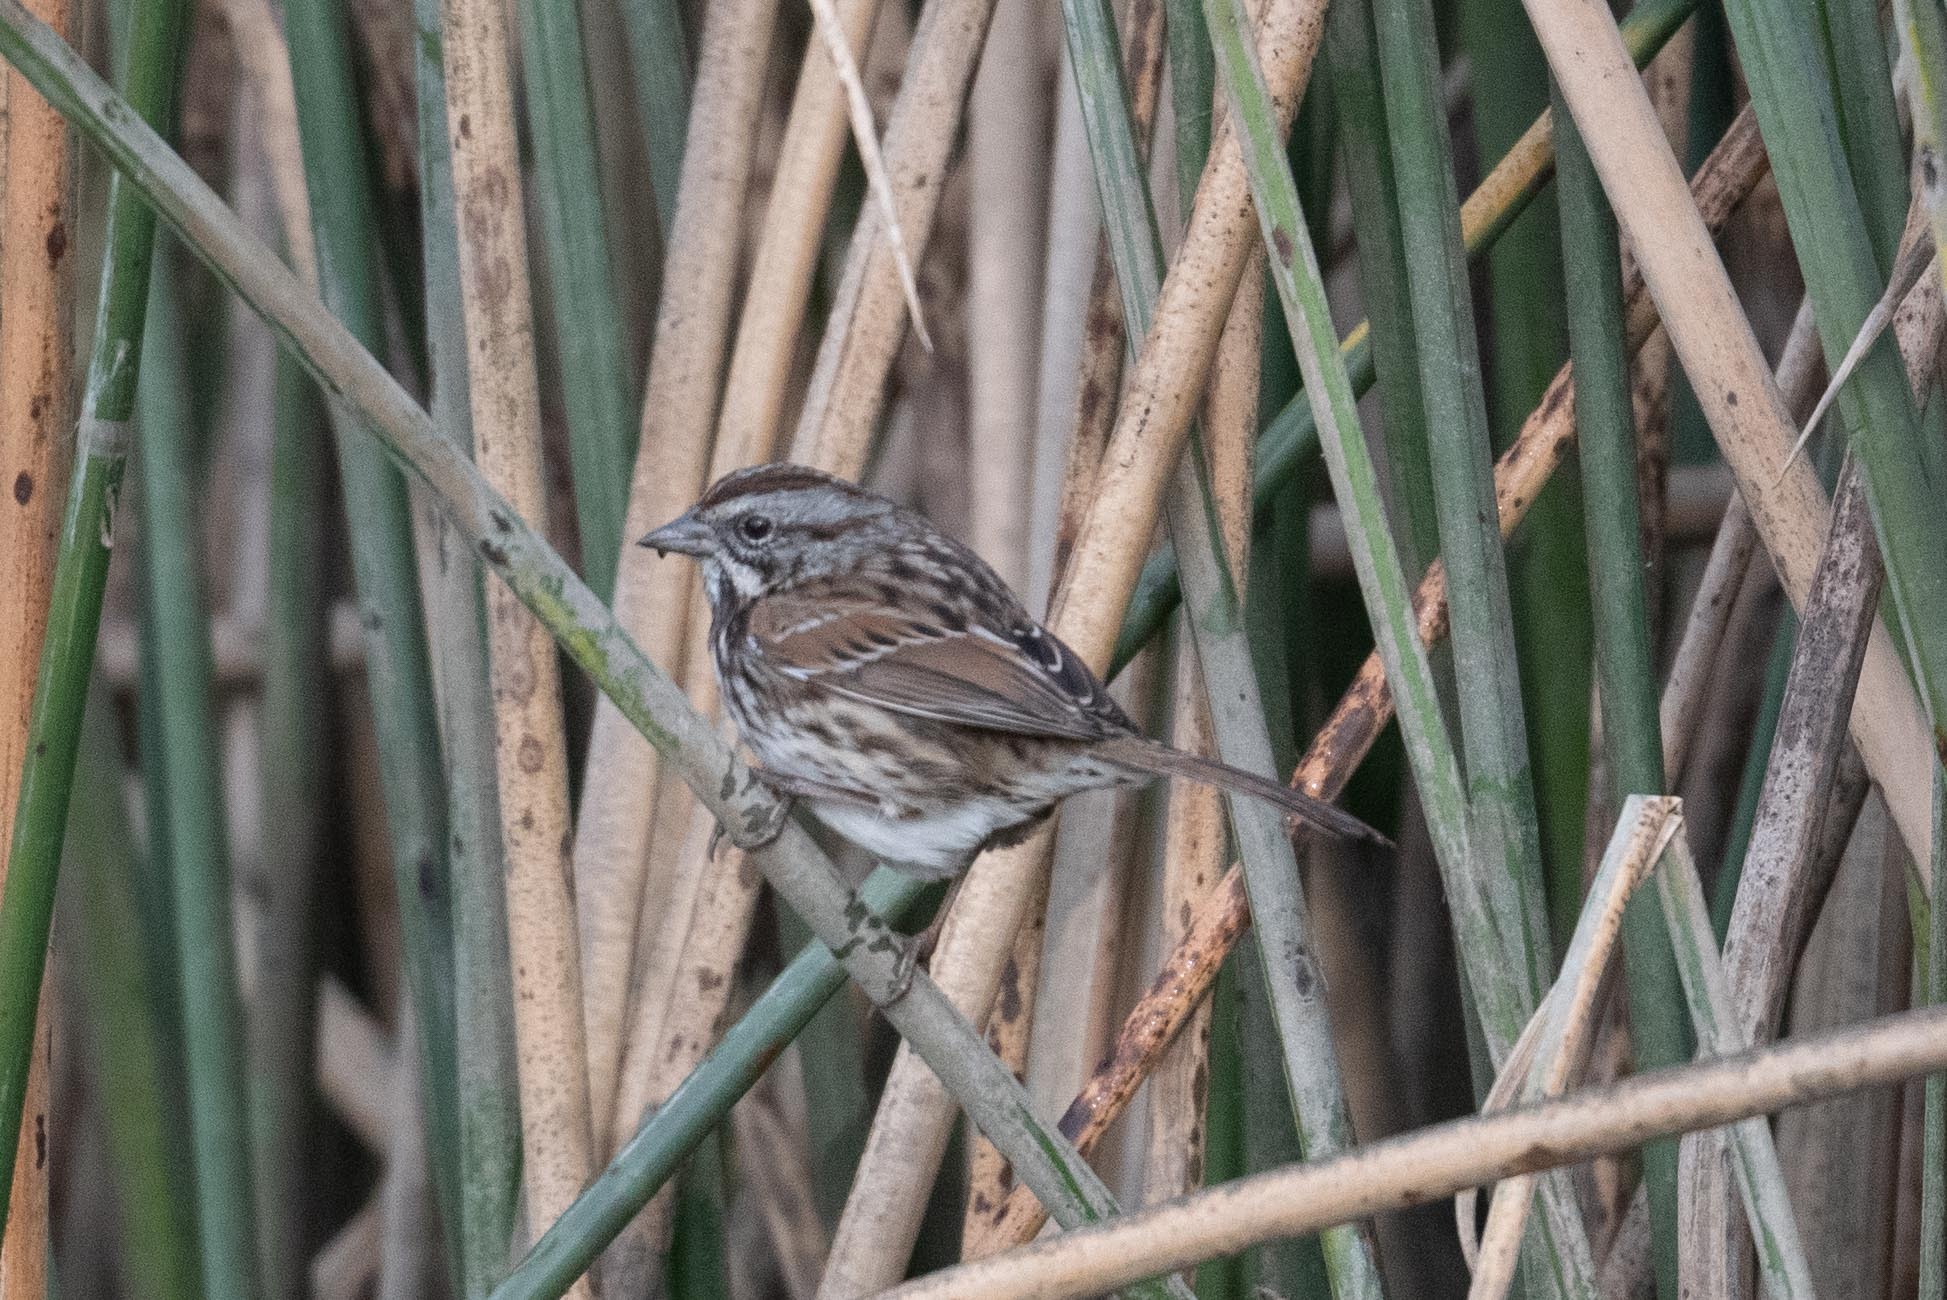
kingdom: Animalia
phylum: Chordata
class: Aves
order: Passeriformes
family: Passerellidae
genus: Melospiza
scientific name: Melospiza melodia
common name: Song sparrow
